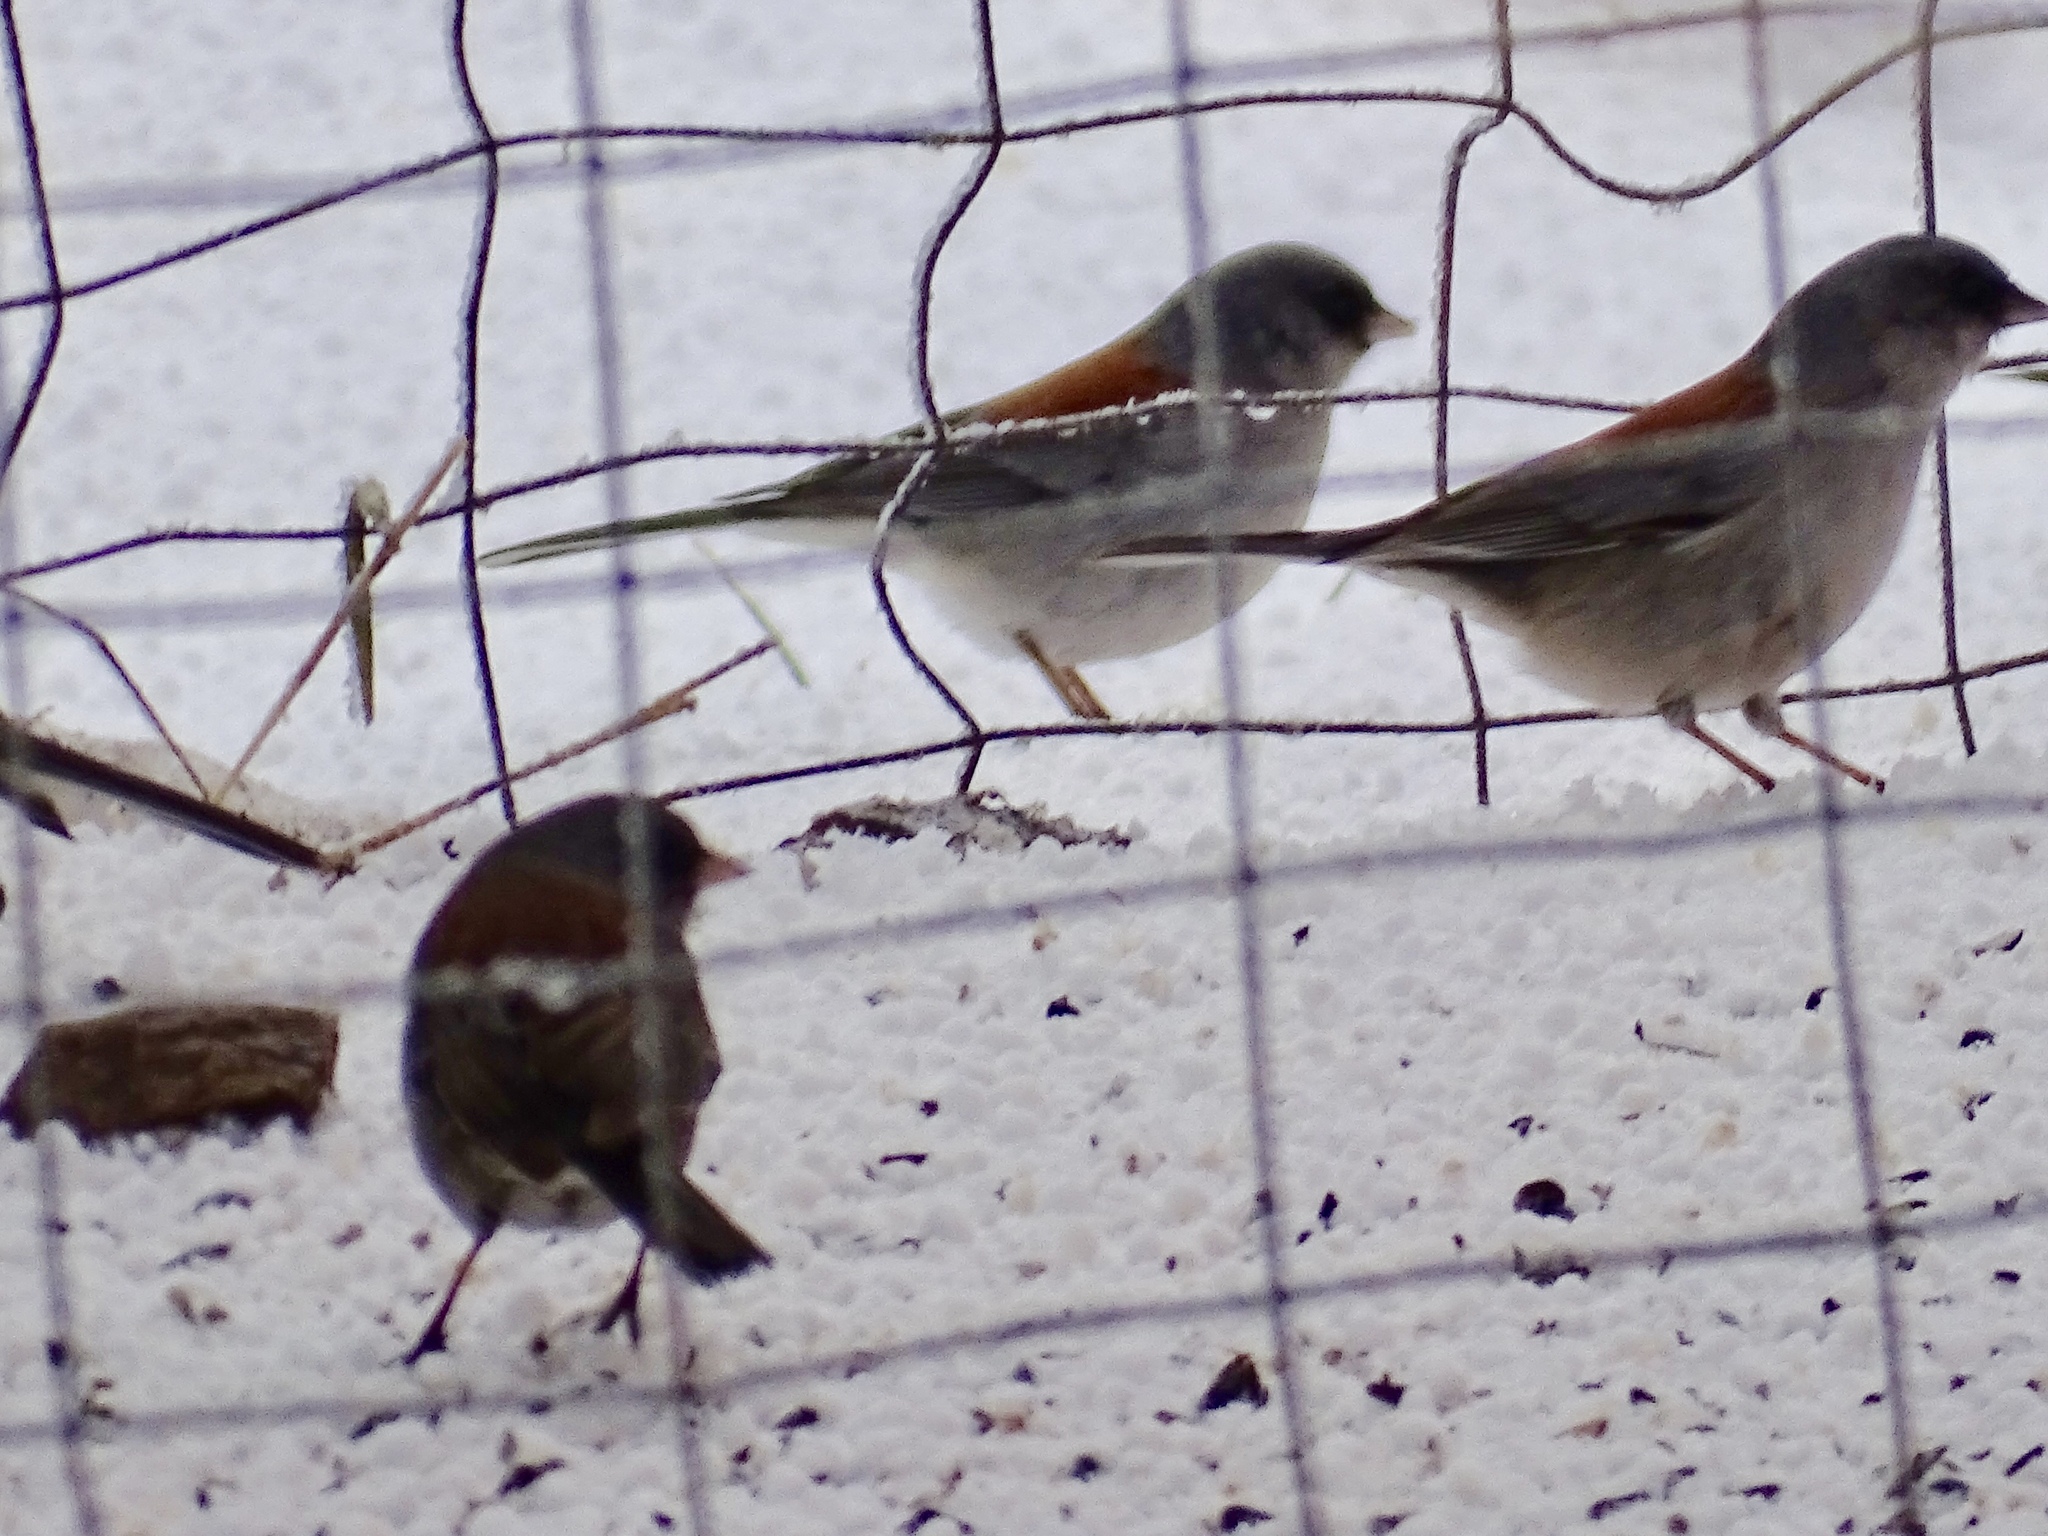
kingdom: Animalia
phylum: Chordata
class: Aves
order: Passeriformes
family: Passerellidae
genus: Junco
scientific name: Junco hyemalis
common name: Dark-eyed junco
